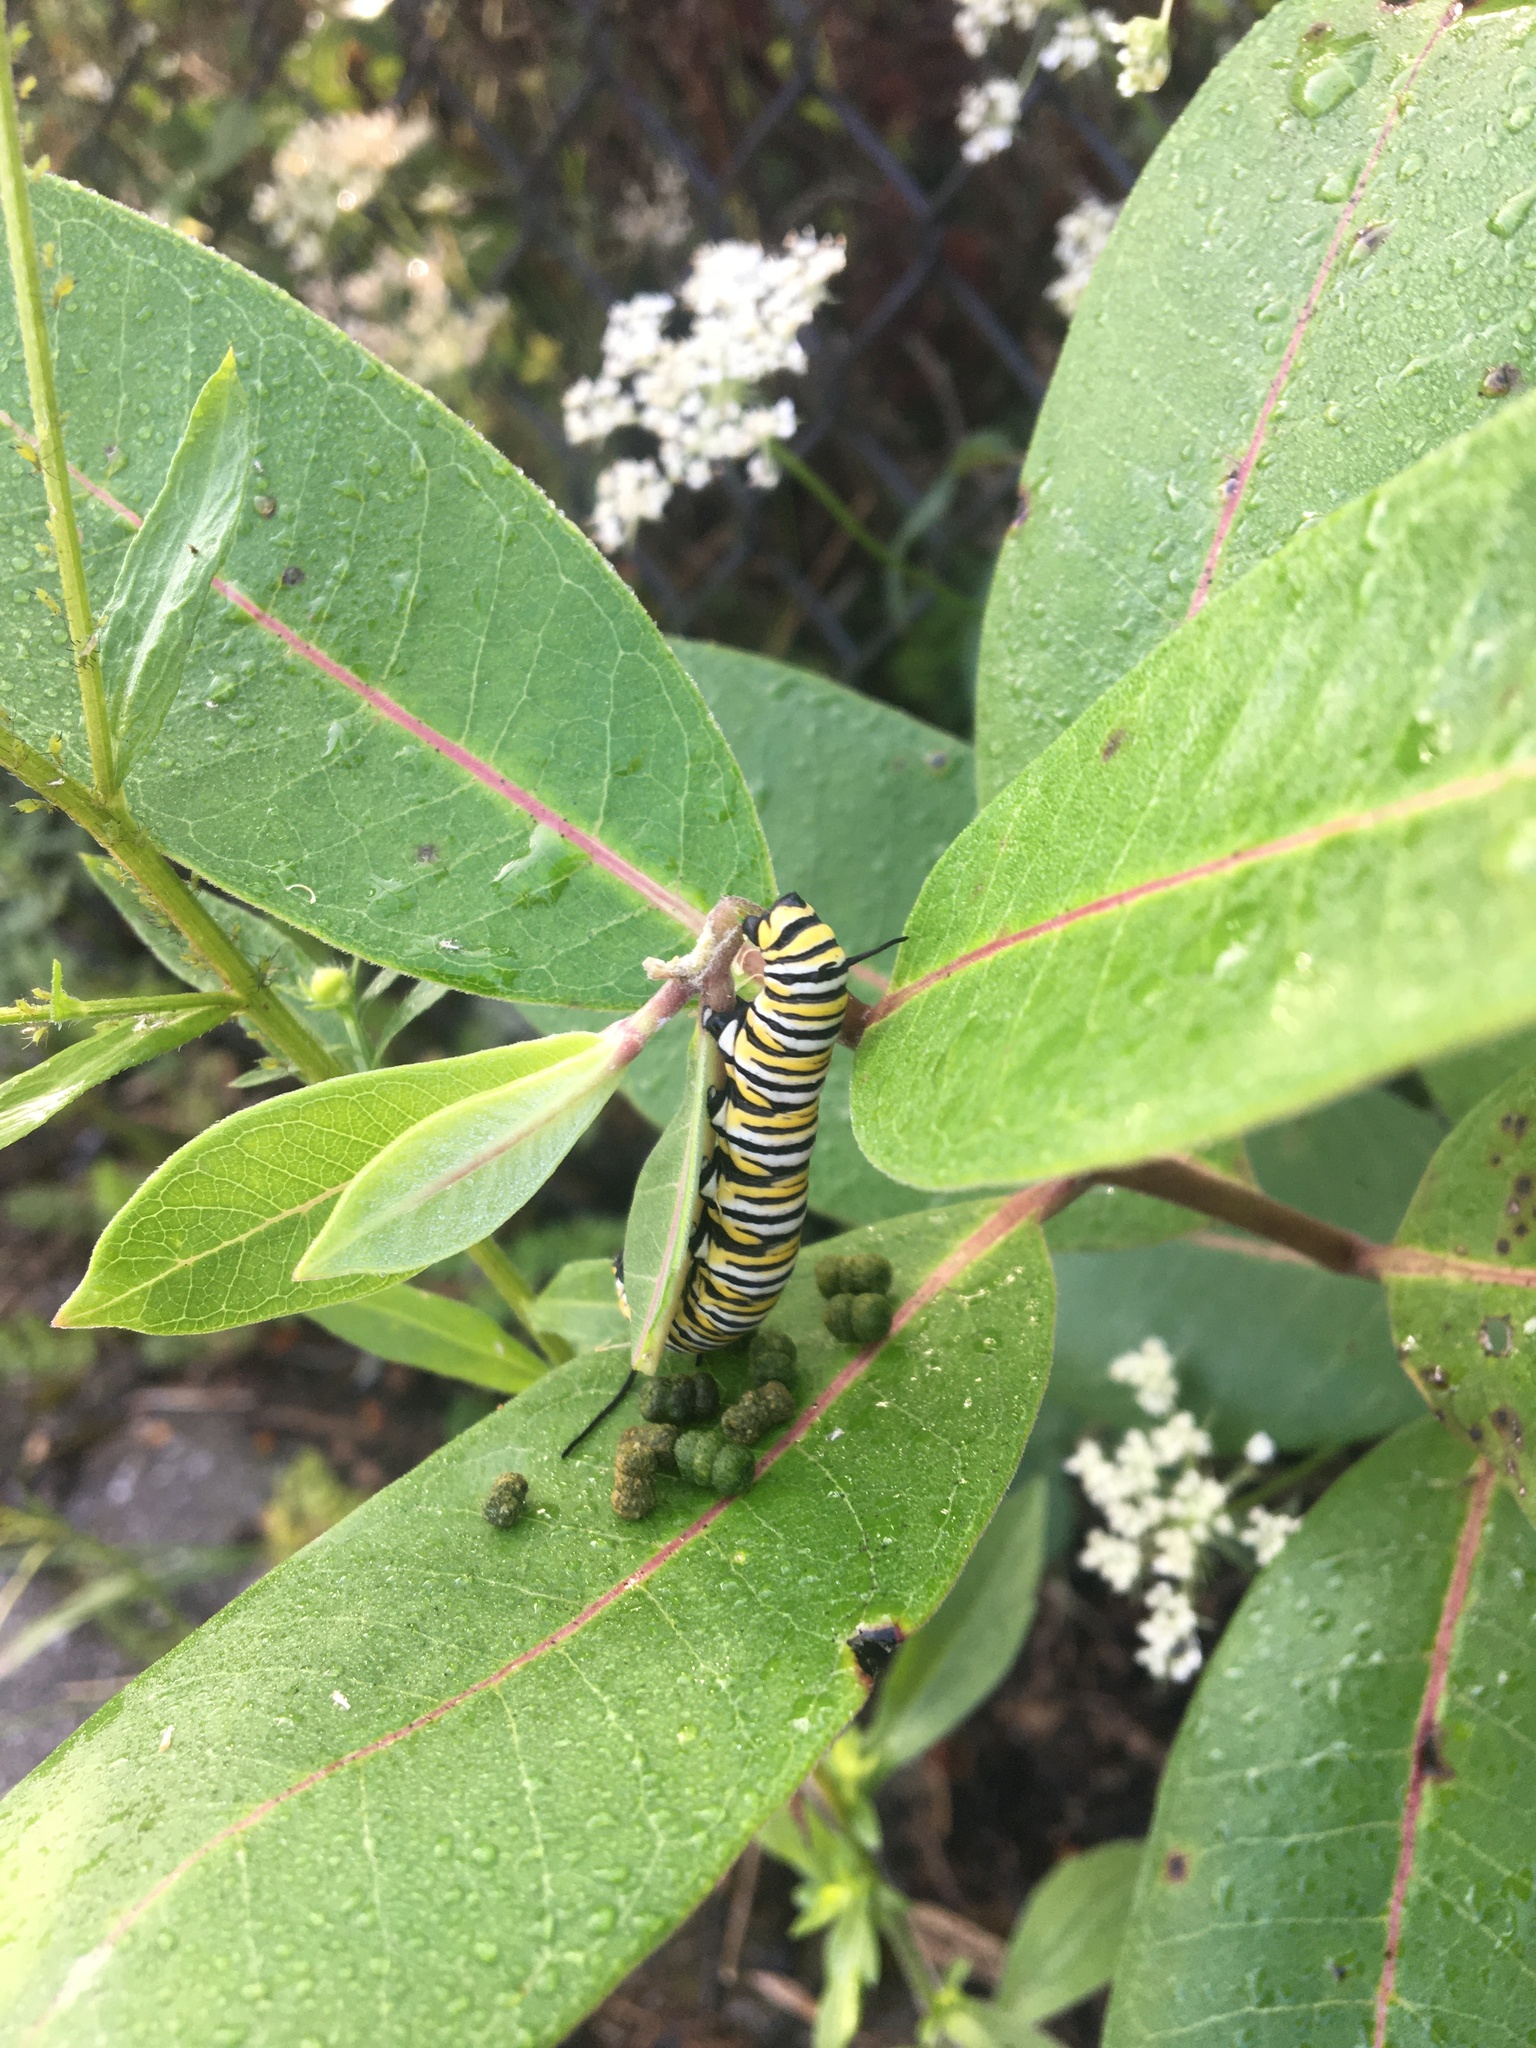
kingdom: Animalia
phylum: Arthropoda
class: Insecta
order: Lepidoptera
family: Nymphalidae
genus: Danaus
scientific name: Danaus plexippus
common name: Monarch
